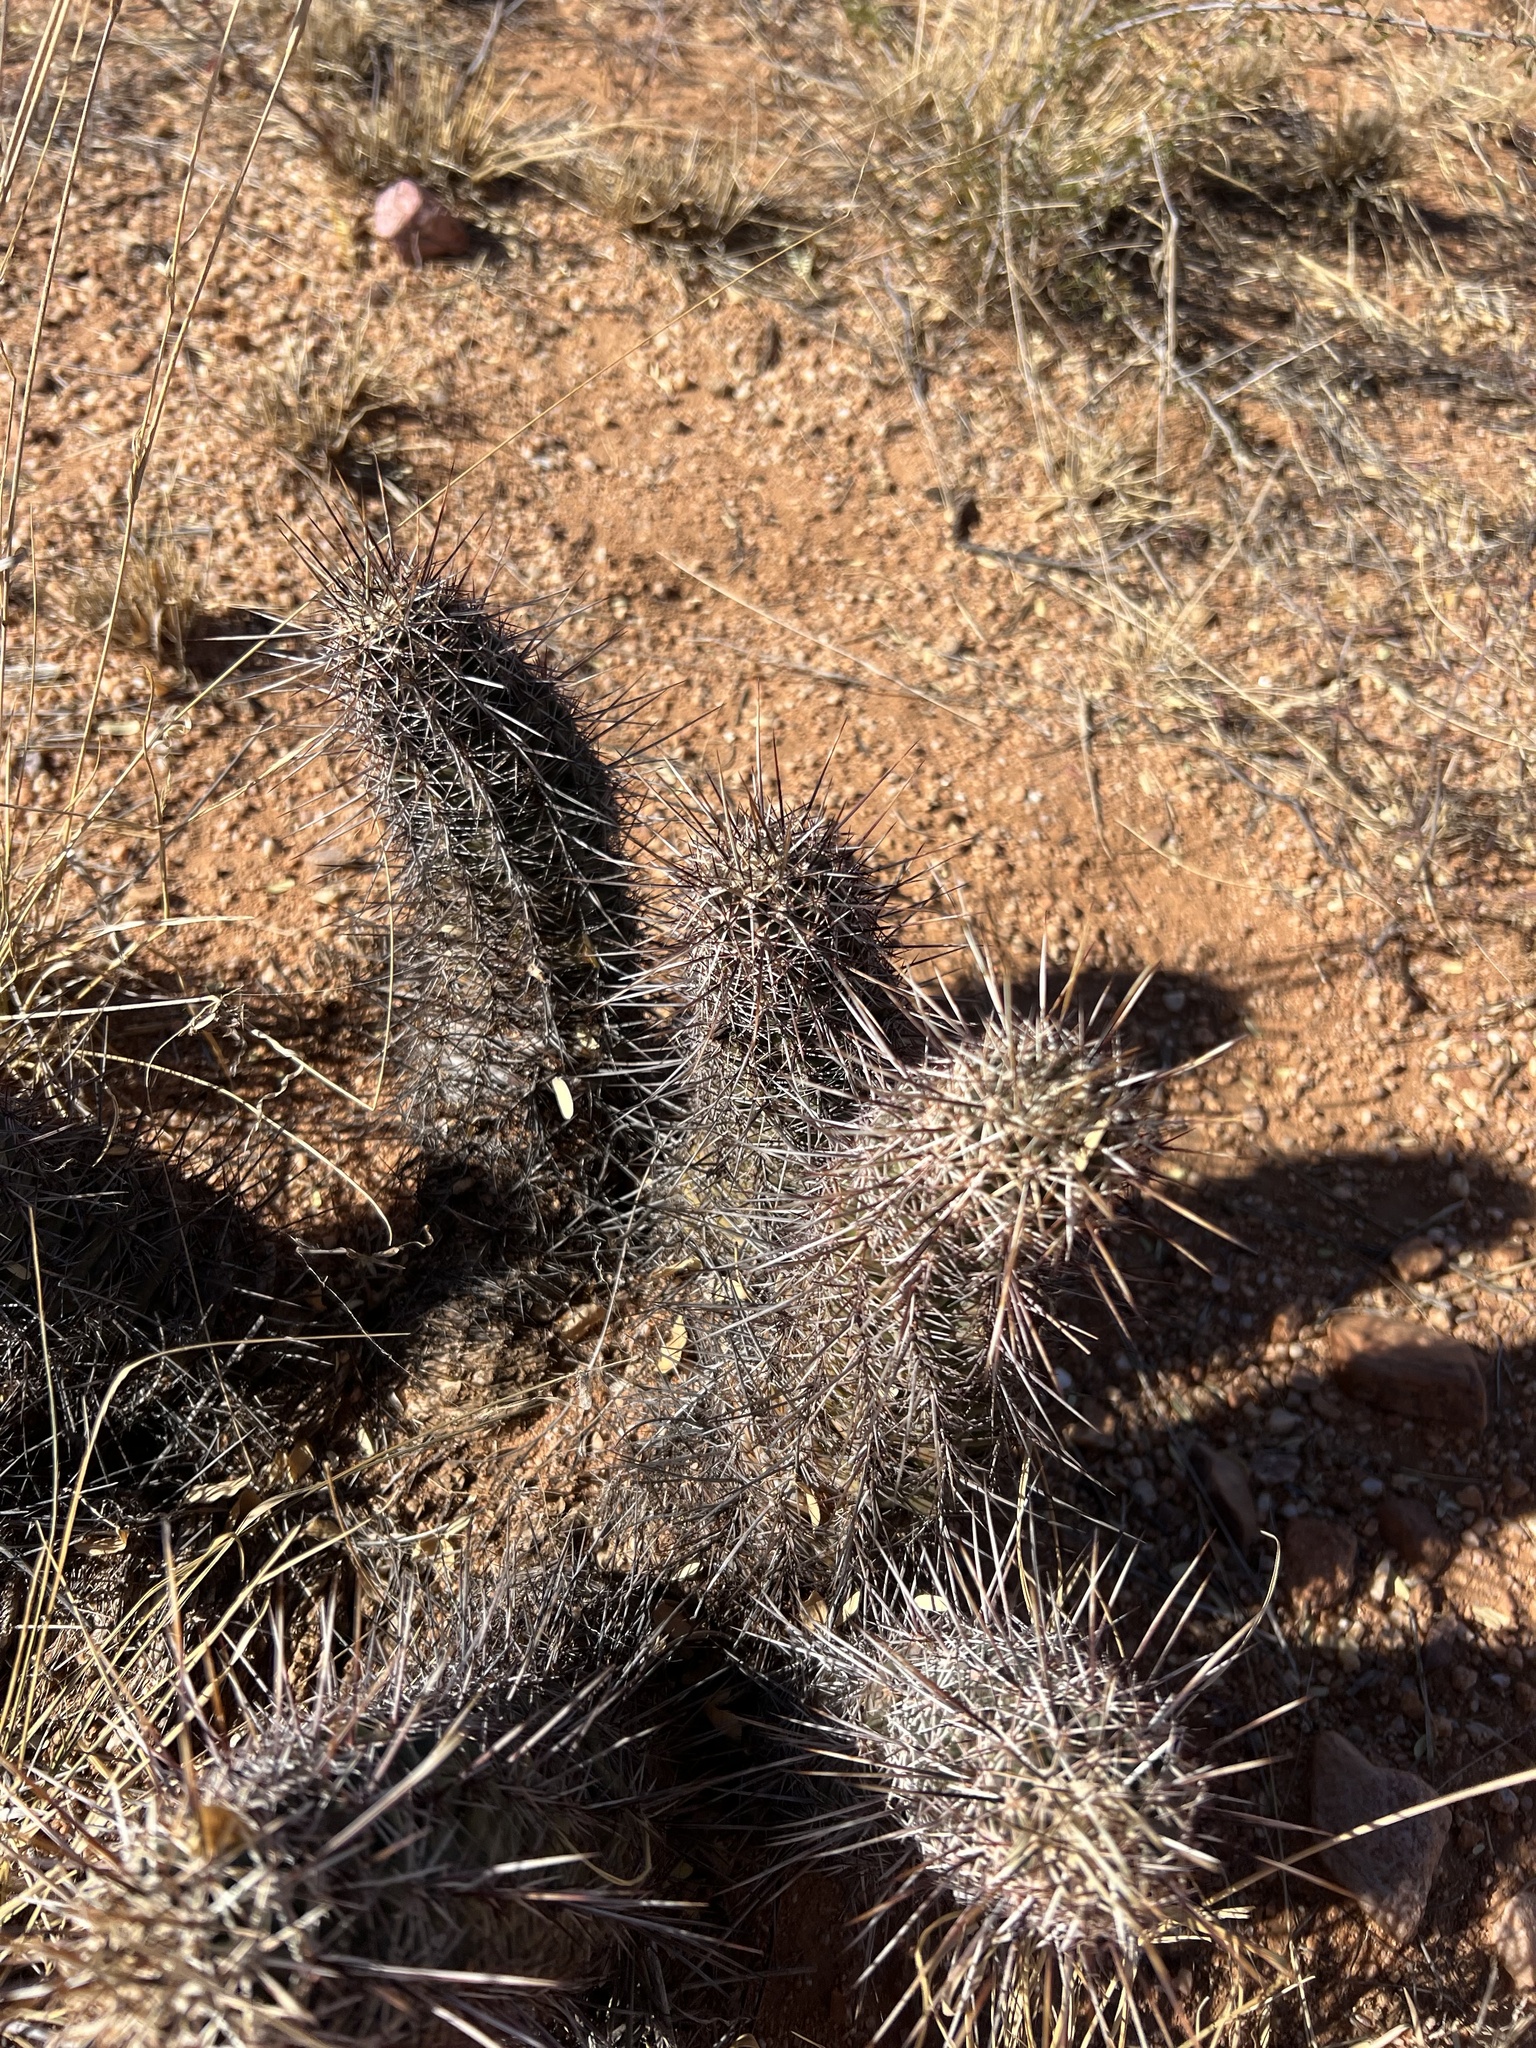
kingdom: Plantae
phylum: Tracheophyta
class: Magnoliopsida
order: Caryophyllales
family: Cactaceae
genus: Echinocereus
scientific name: Echinocereus fasciculatus
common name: Bundle hedgehog
